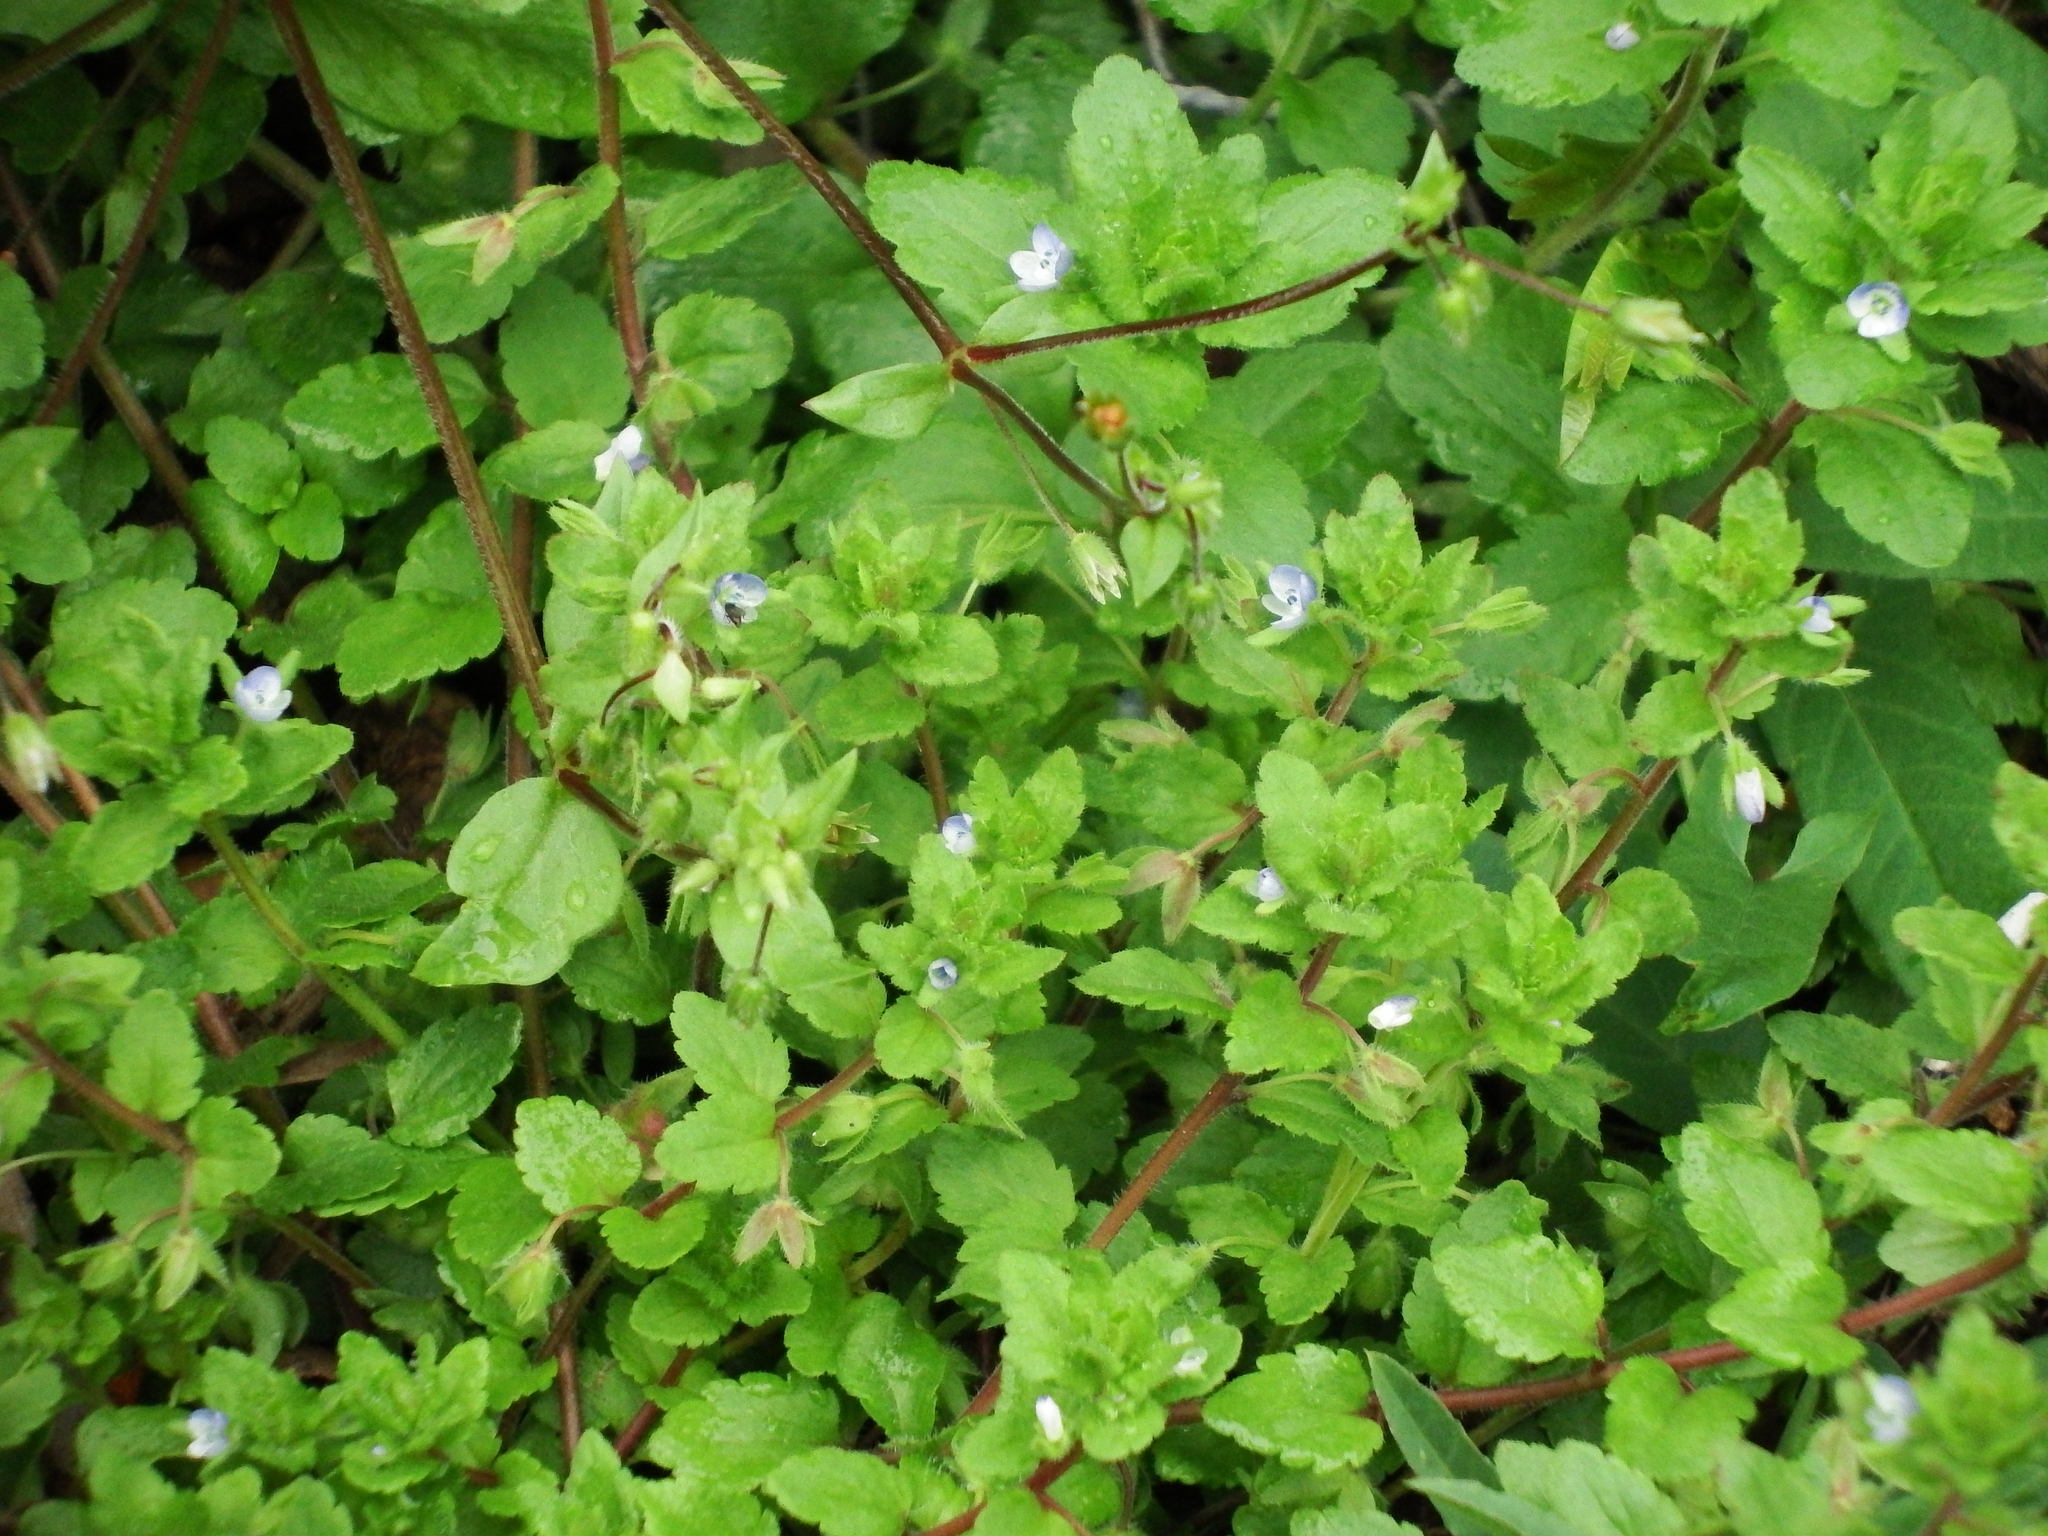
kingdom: Plantae
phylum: Tracheophyta
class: Magnoliopsida
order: Lamiales
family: Plantaginaceae
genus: Veronica
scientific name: Veronica agrestis
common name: Green field-speedwell
